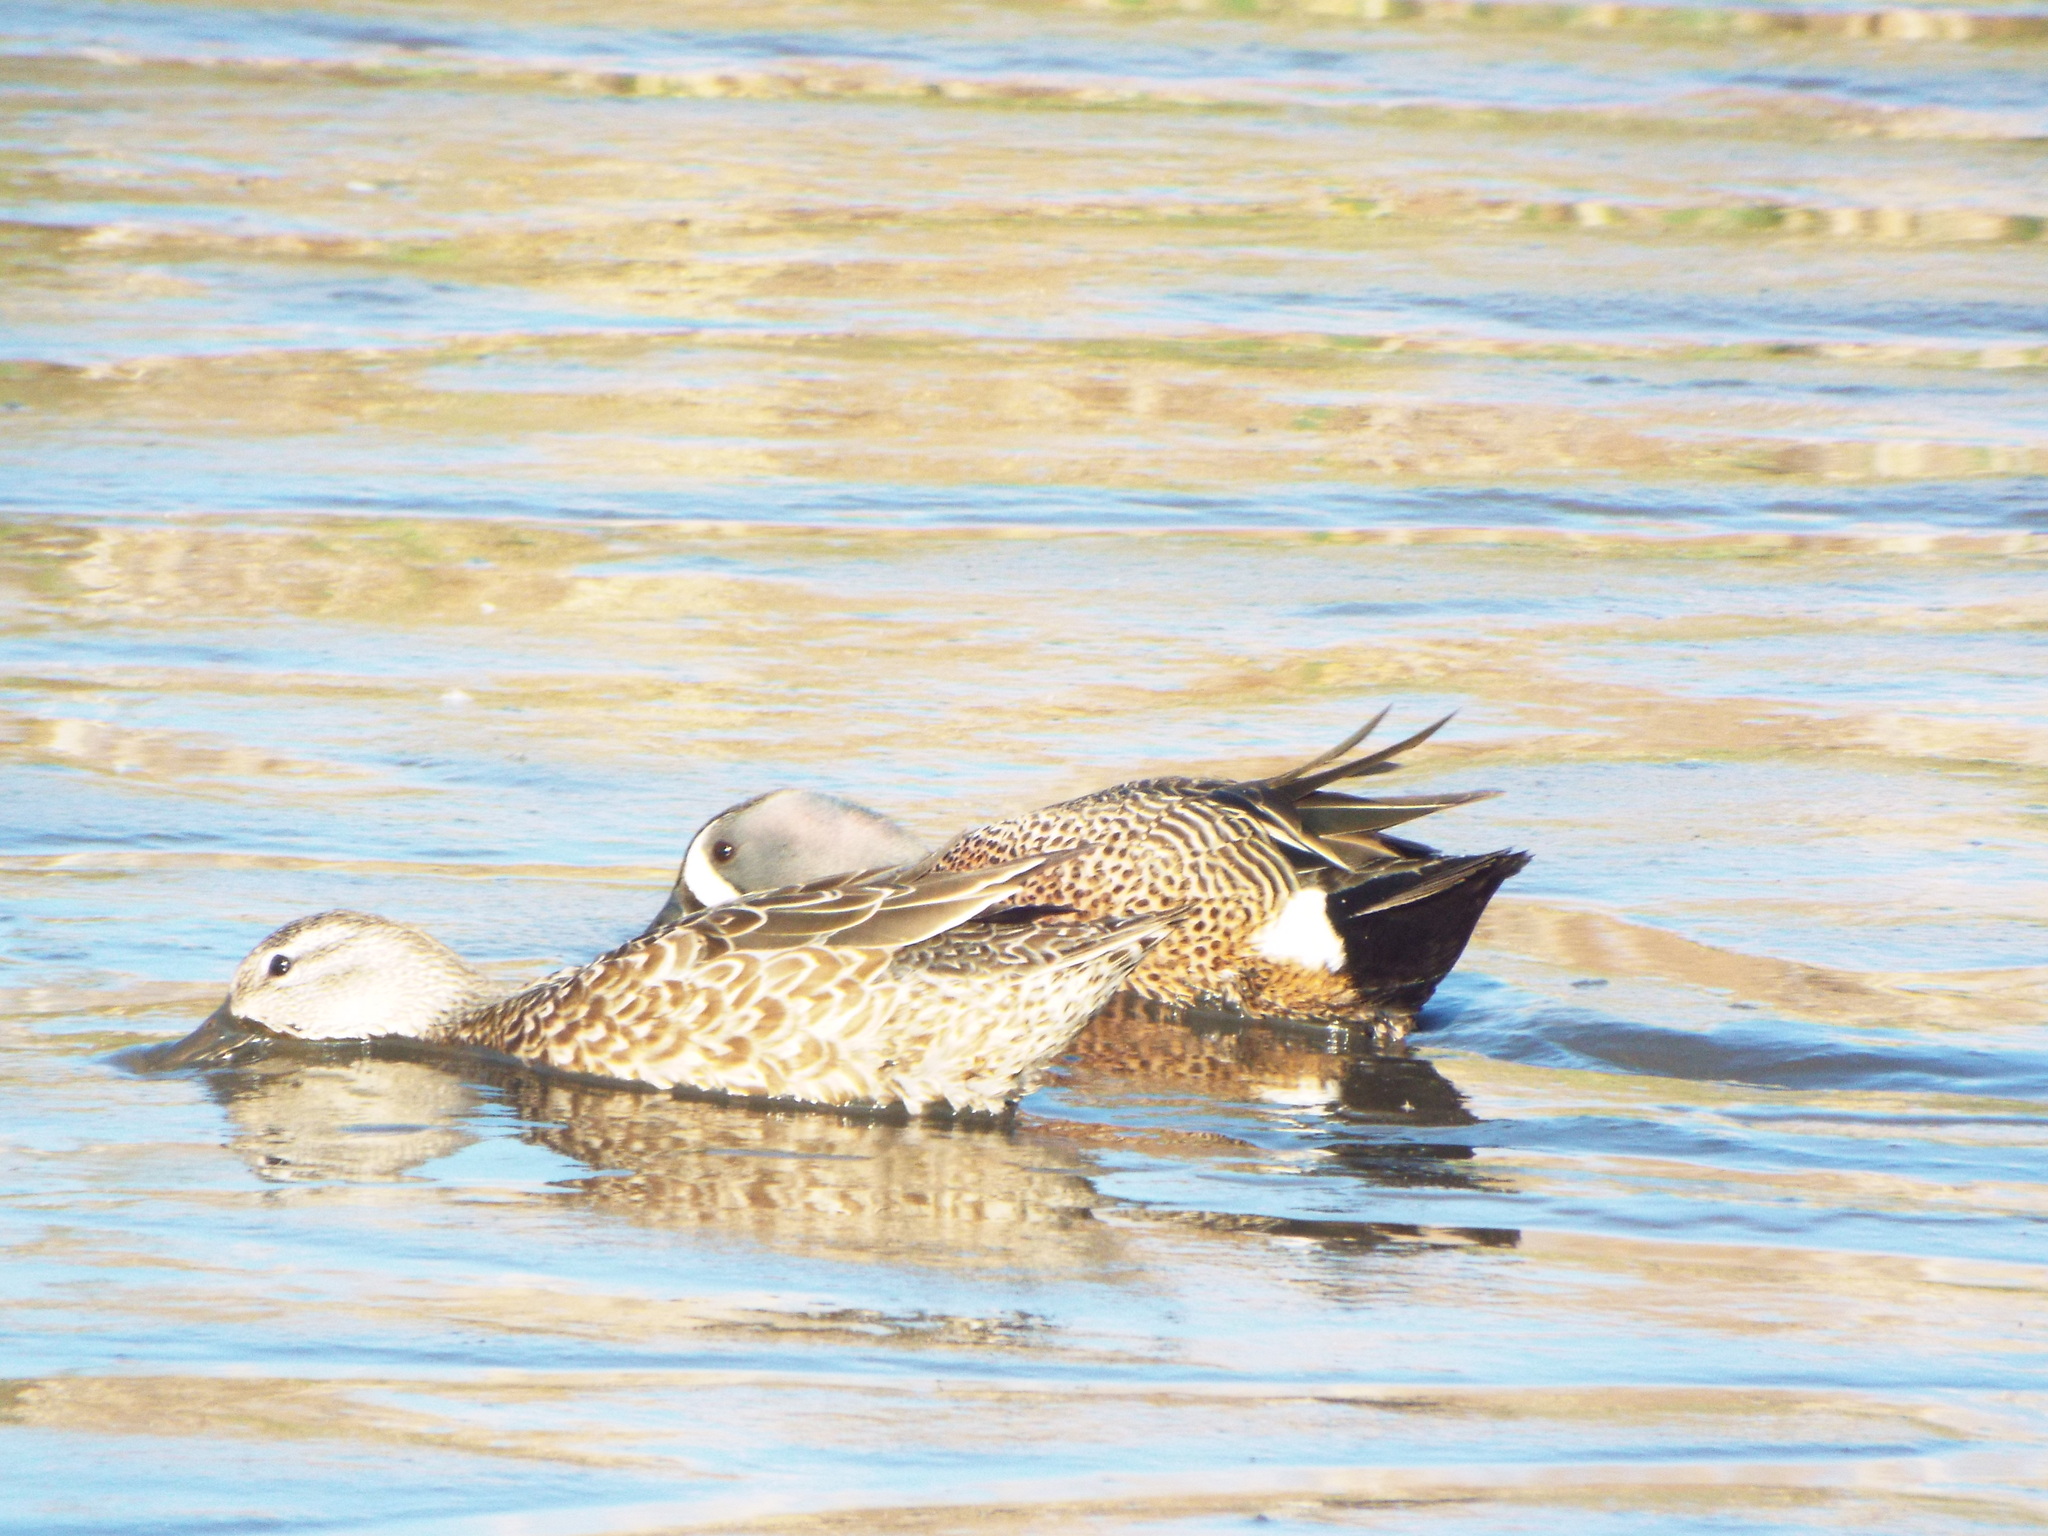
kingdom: Animalia
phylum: Chordata
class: Aves
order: Anseriformes
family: Anatidae
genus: Spatula
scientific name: Spatula discors
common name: Blue-winged teal
